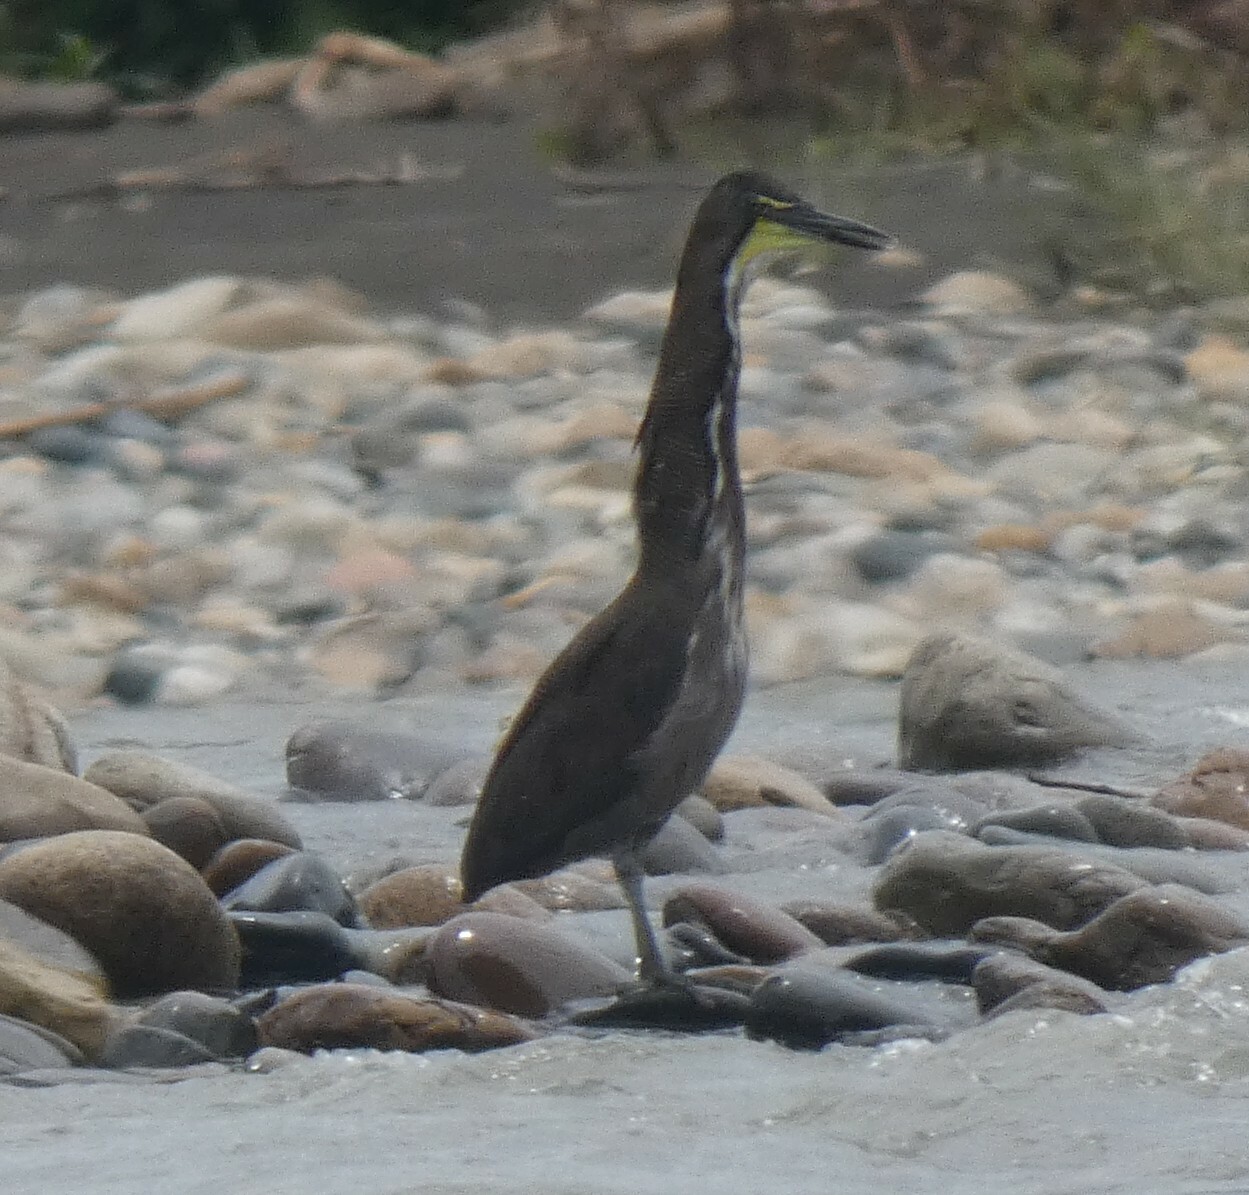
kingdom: Animalia
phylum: Chordata
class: Aves
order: Pelecaniformes
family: Ardeidae
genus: Tigrisoma
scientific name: Tigrisoma fasciatum
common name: Fasciated tiger-heron
